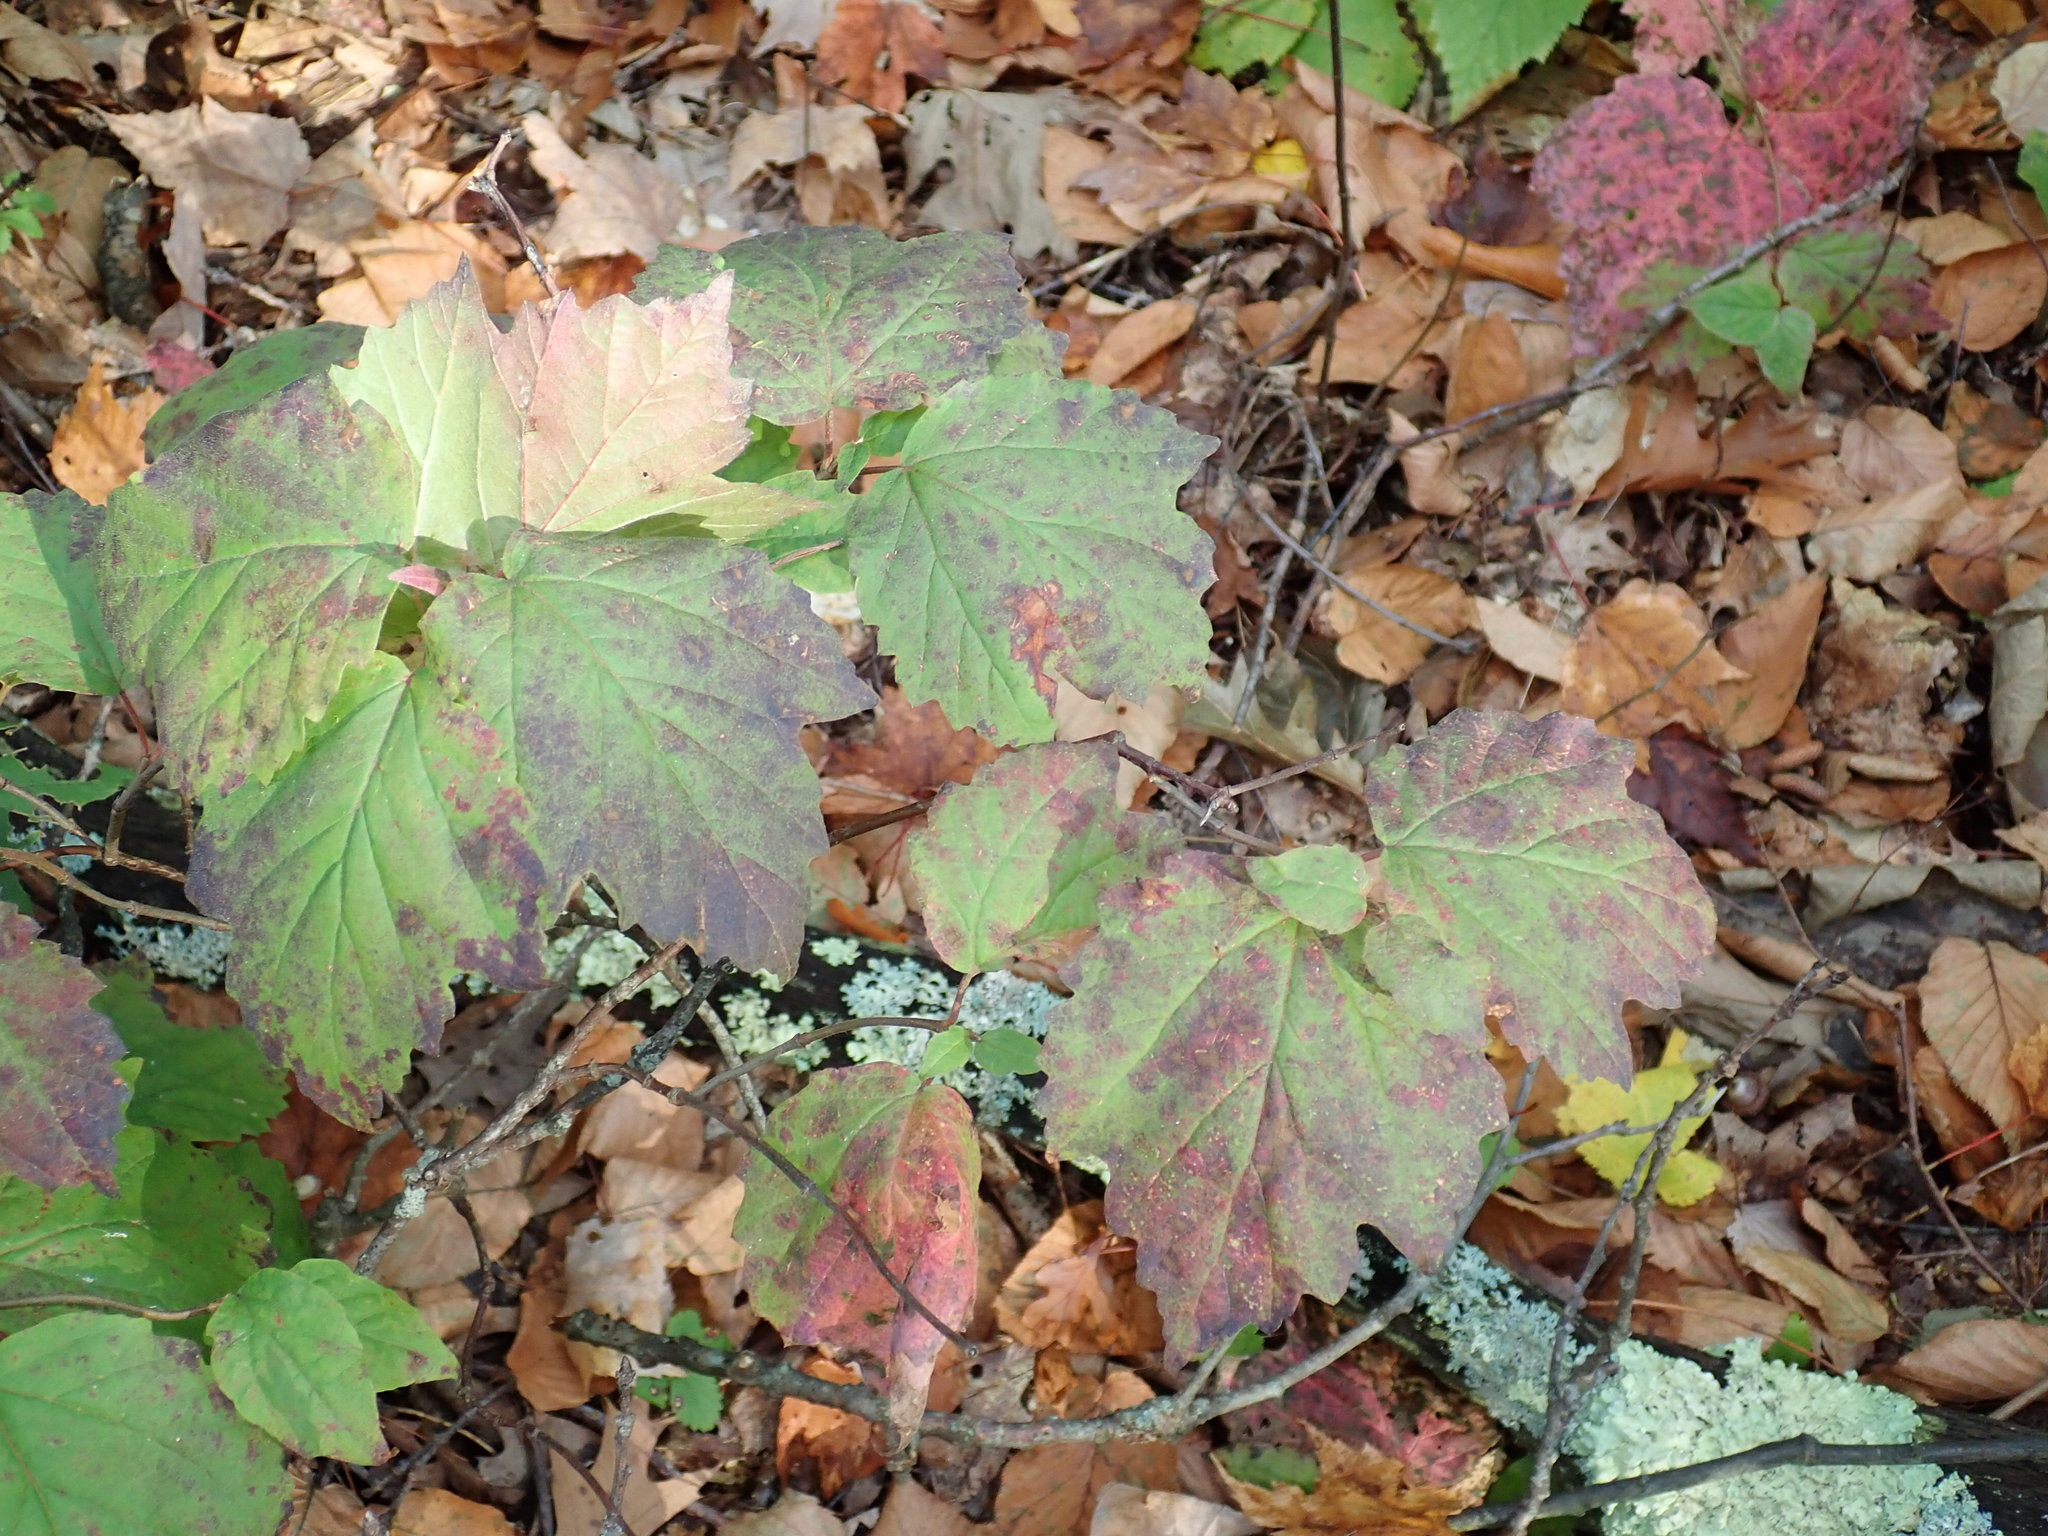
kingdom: Plantae
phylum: Tracheophyta
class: Magnoliopsida
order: Dipsacales
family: Viburnaceae
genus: Viburnum
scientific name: Viburnum acerifolium
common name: Dockmackie
